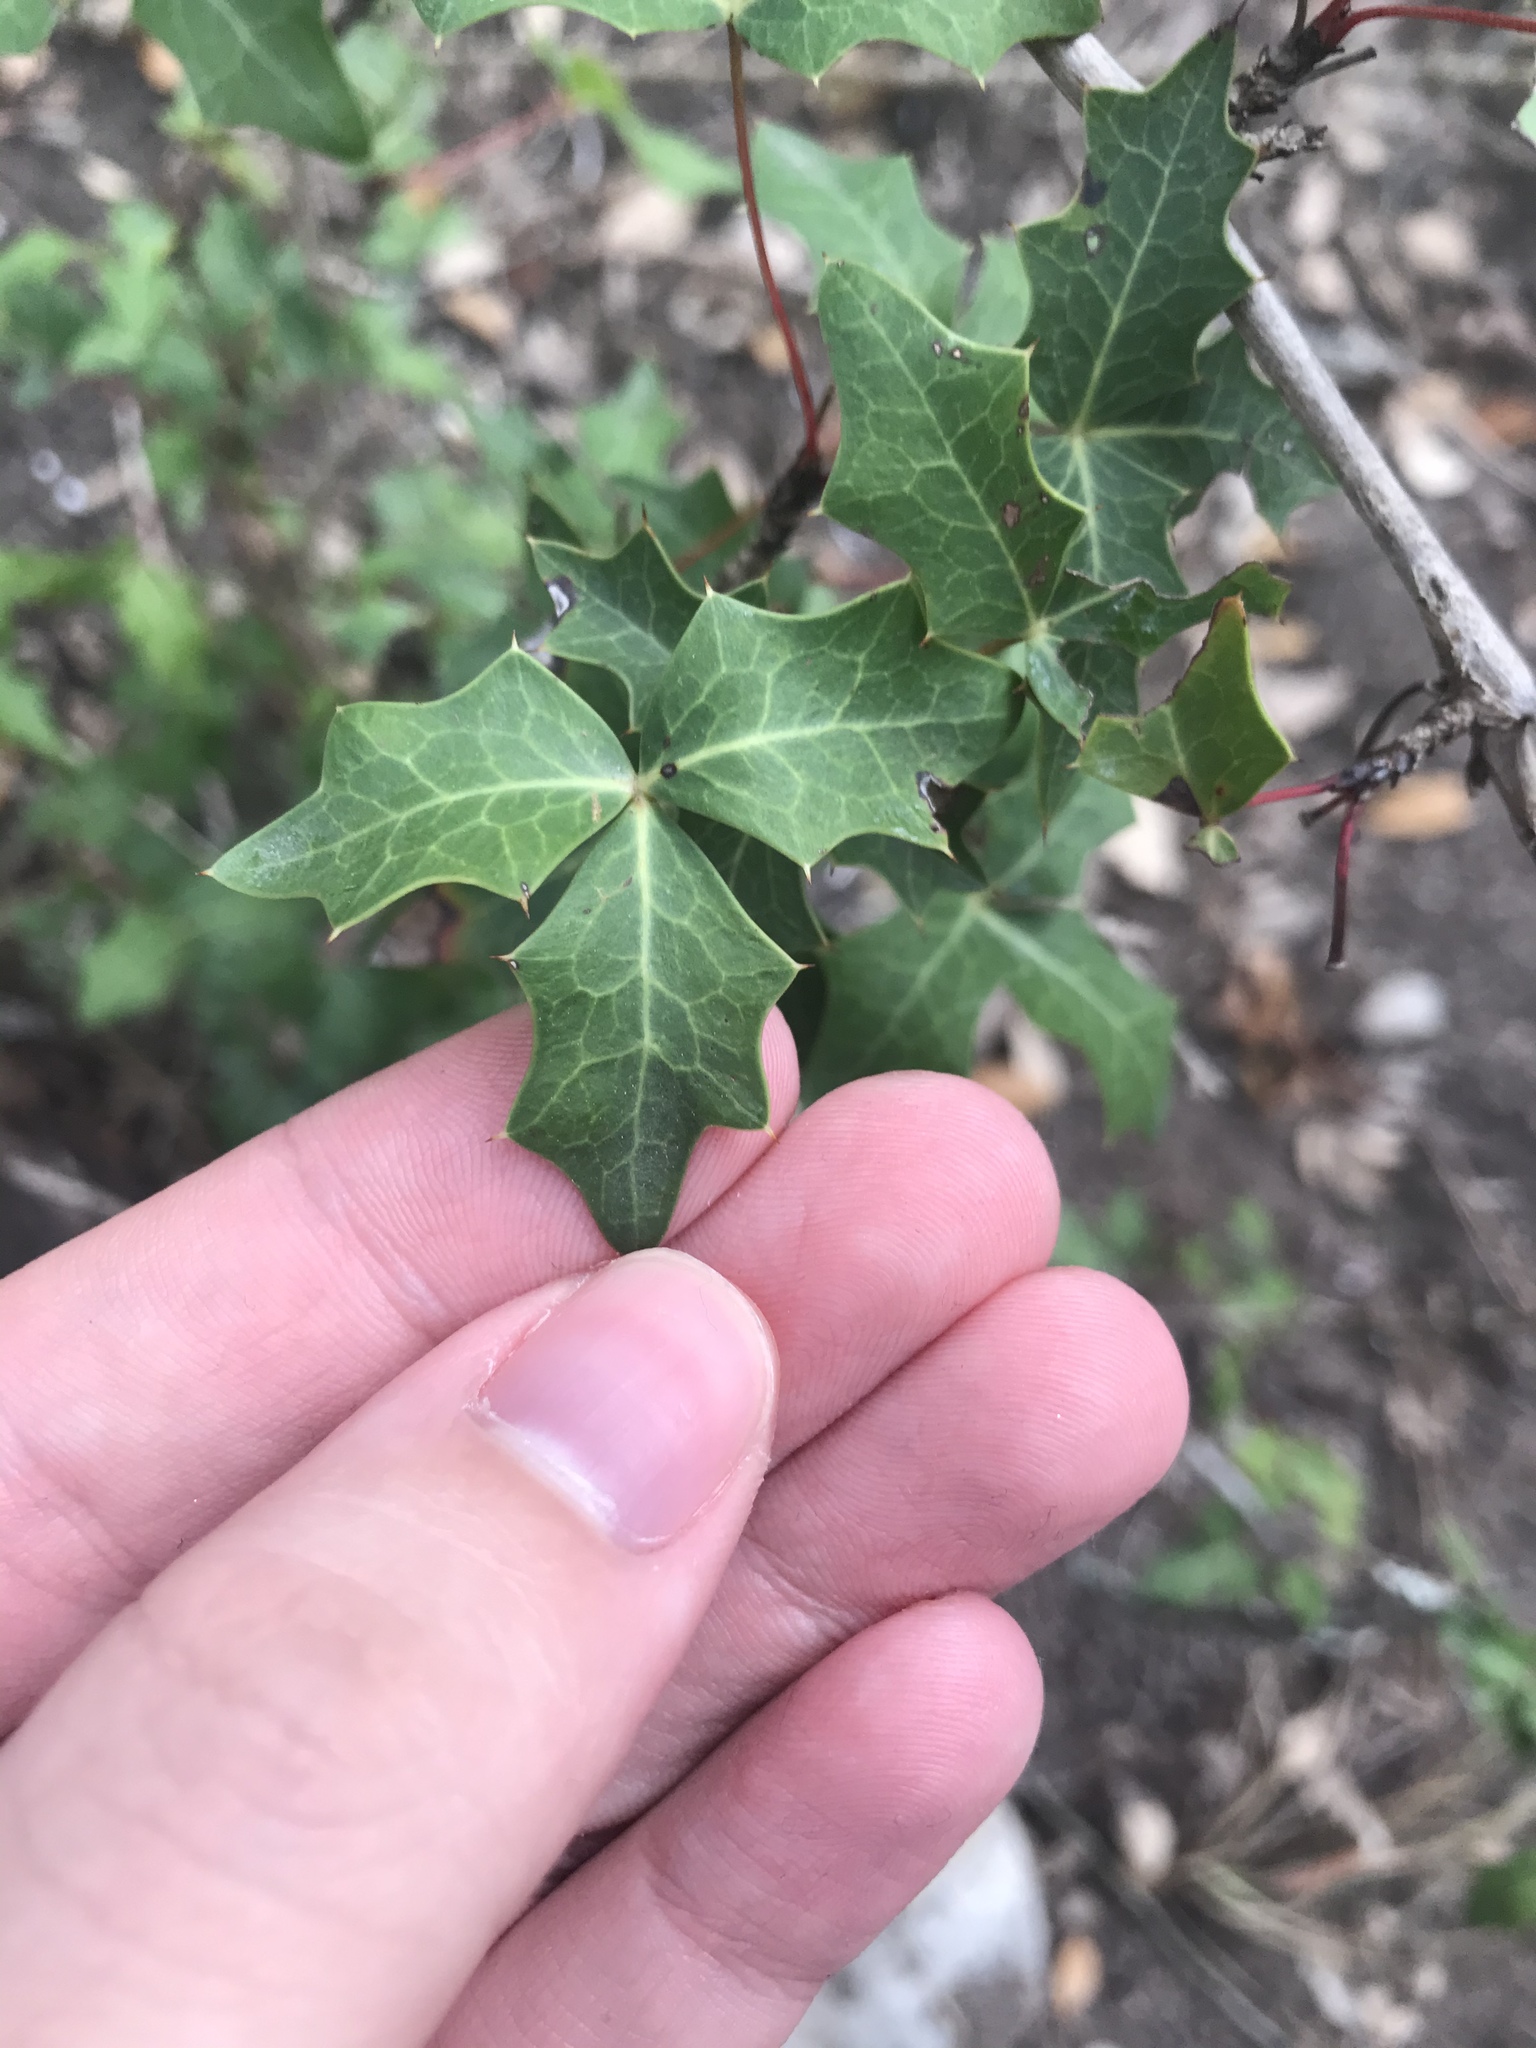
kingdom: Plantae
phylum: Tracheophyta
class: Magnoliopsida
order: Ranunculales
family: Berberidaceae
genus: Alloberberis
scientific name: Alloberberis trifoliolata
